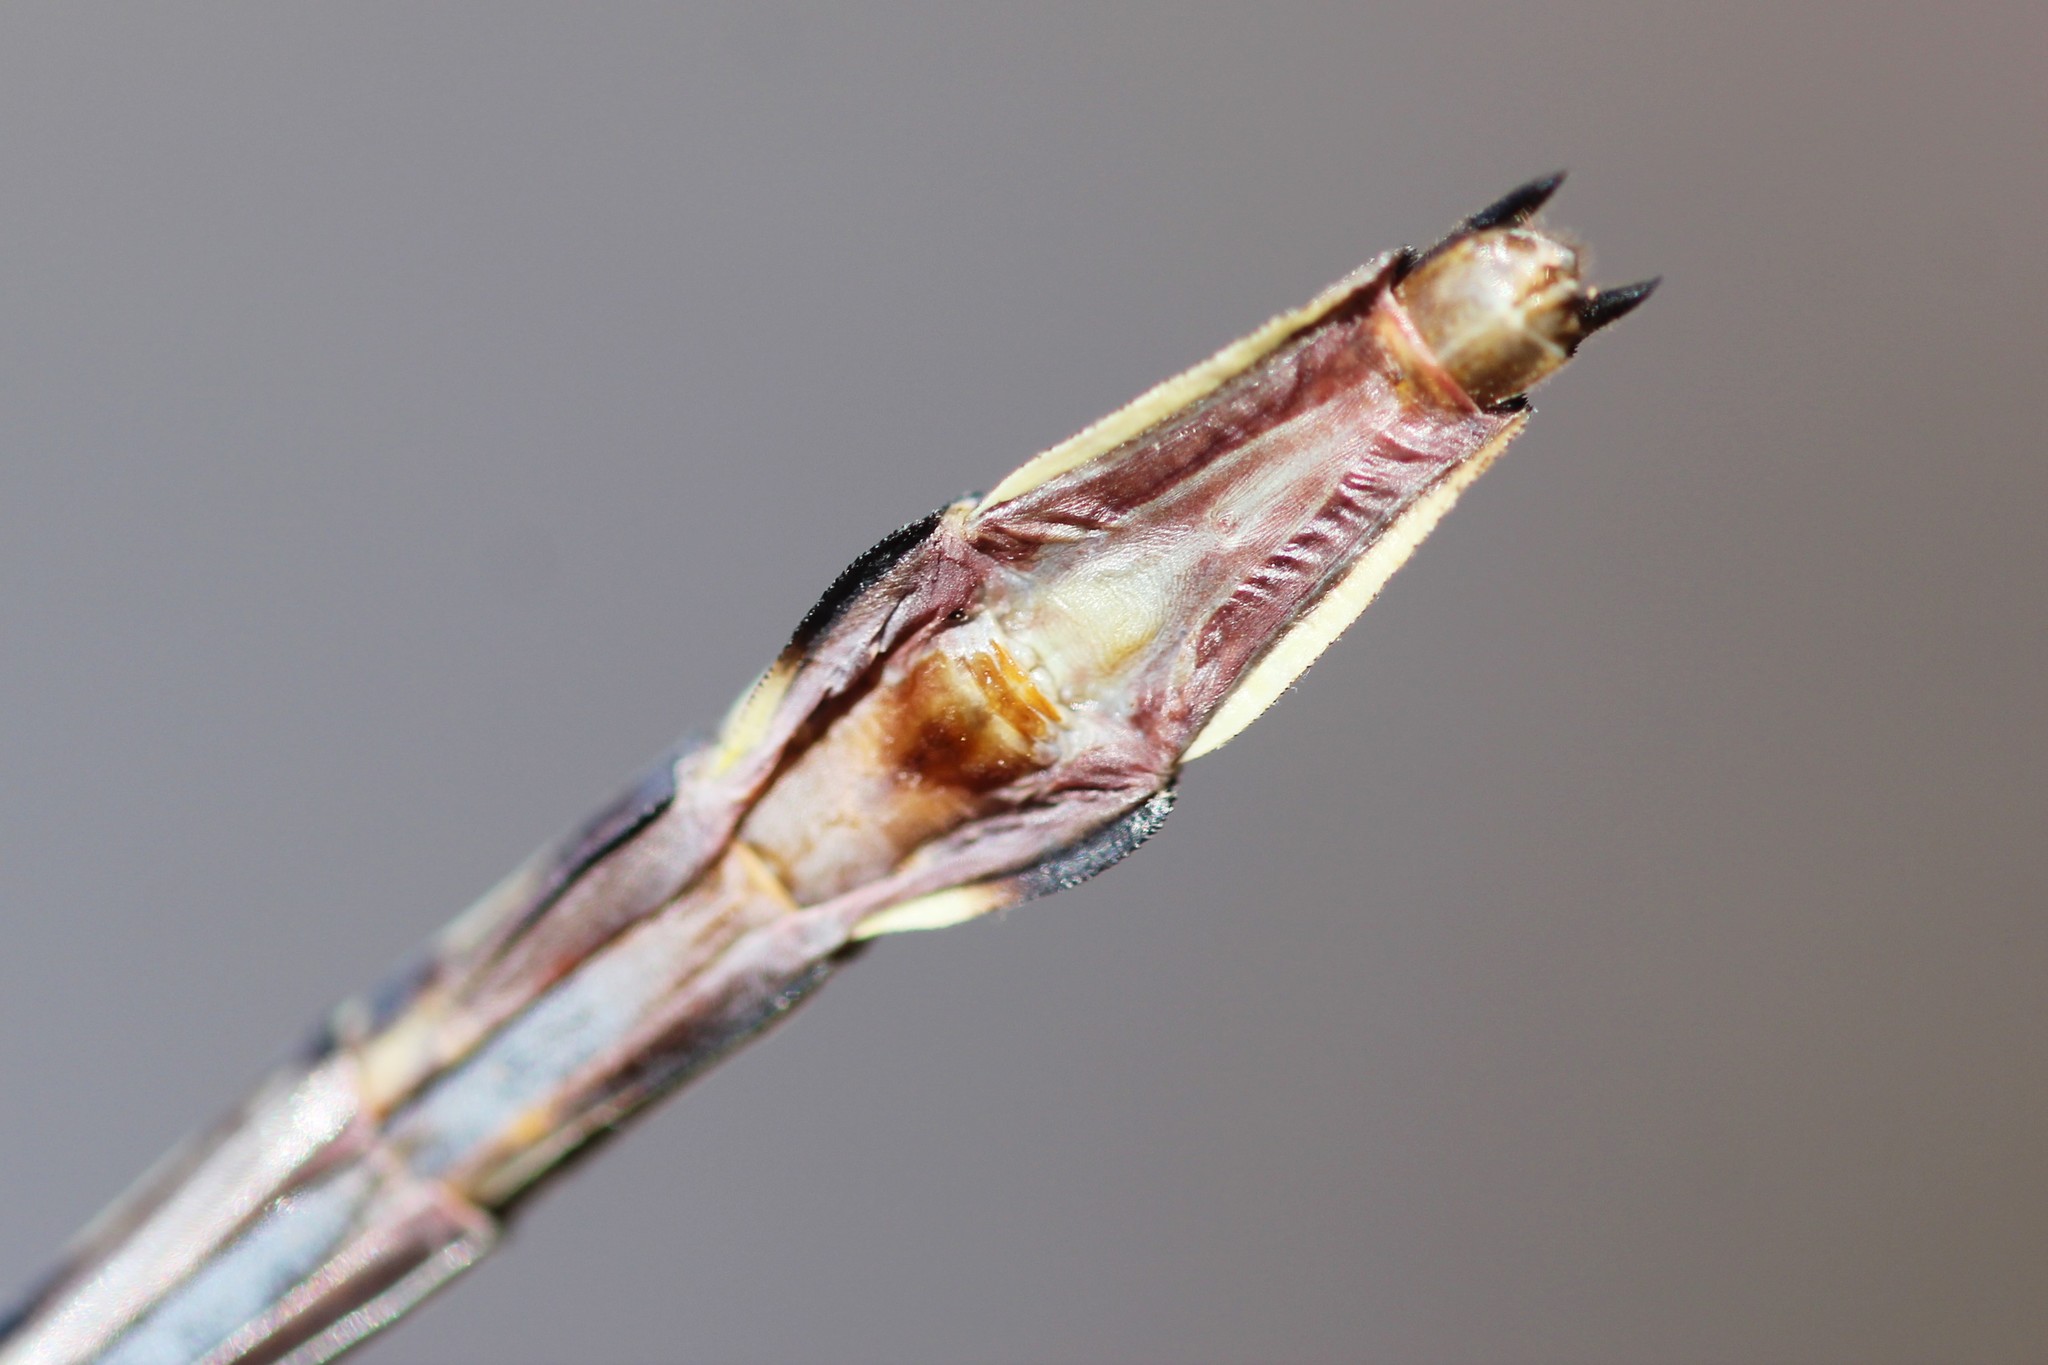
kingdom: Animalia
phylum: Arthropoda
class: Insecta
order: Odonata
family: Gomphidae
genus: Stylurus
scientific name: Stylurus spiniceps
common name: Arrow clubtail
